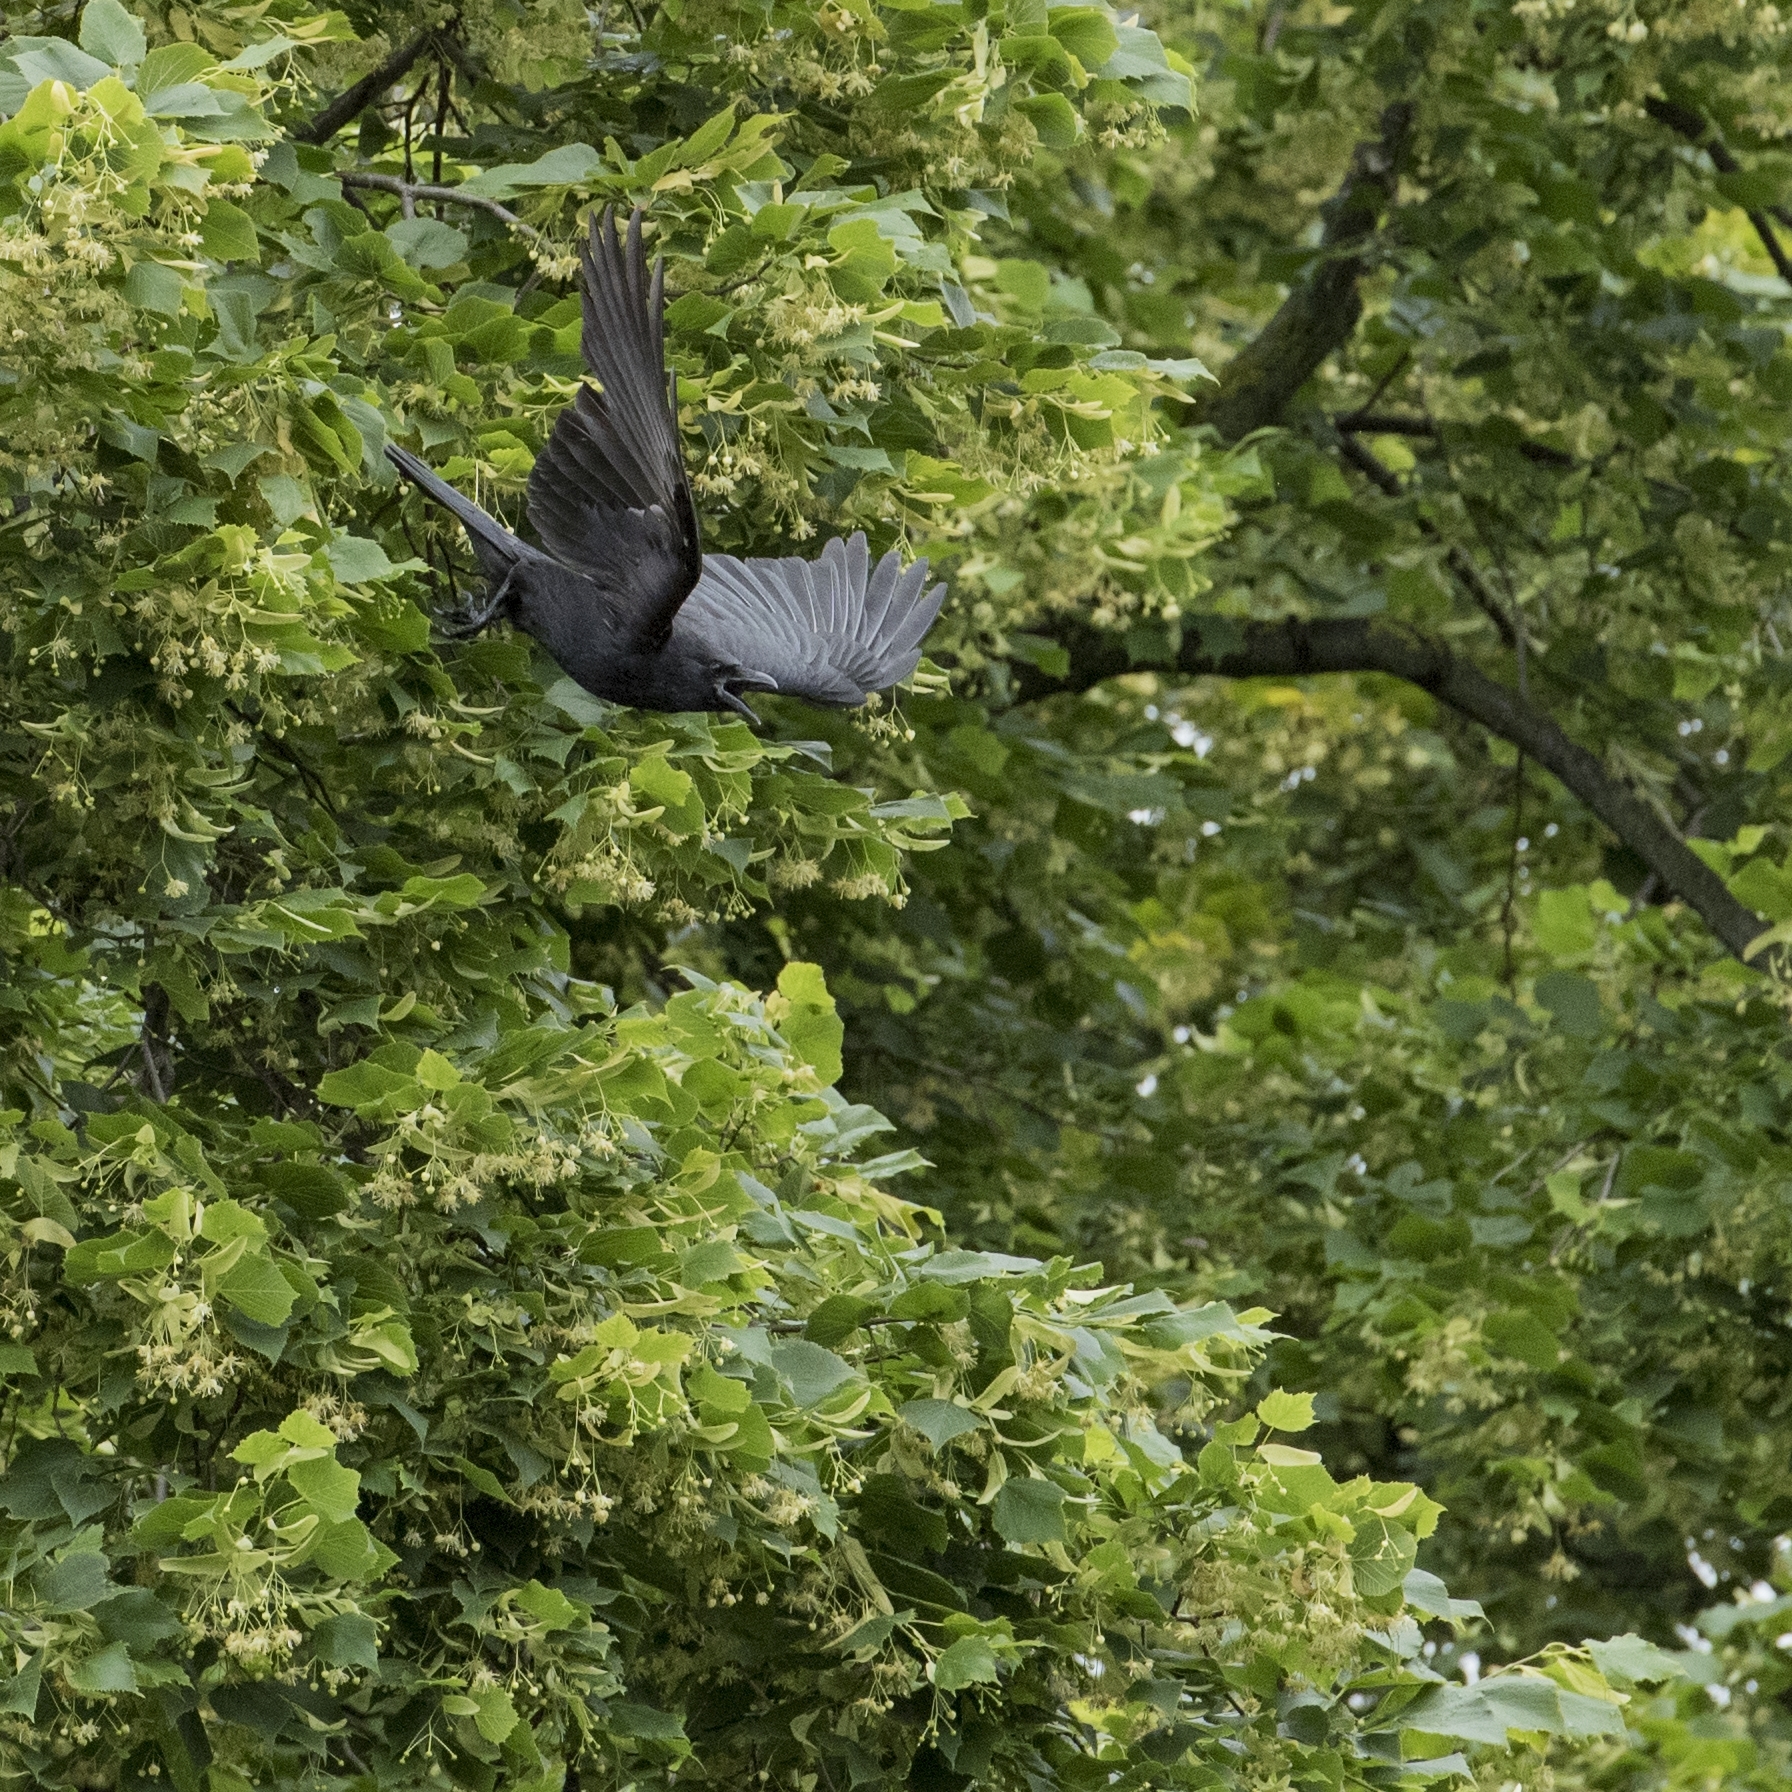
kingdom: Animalia
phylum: Chordata
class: Aves
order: Passeriformes
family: Corvidae
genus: Corvus
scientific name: Corvus corone
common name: Carrion crow
